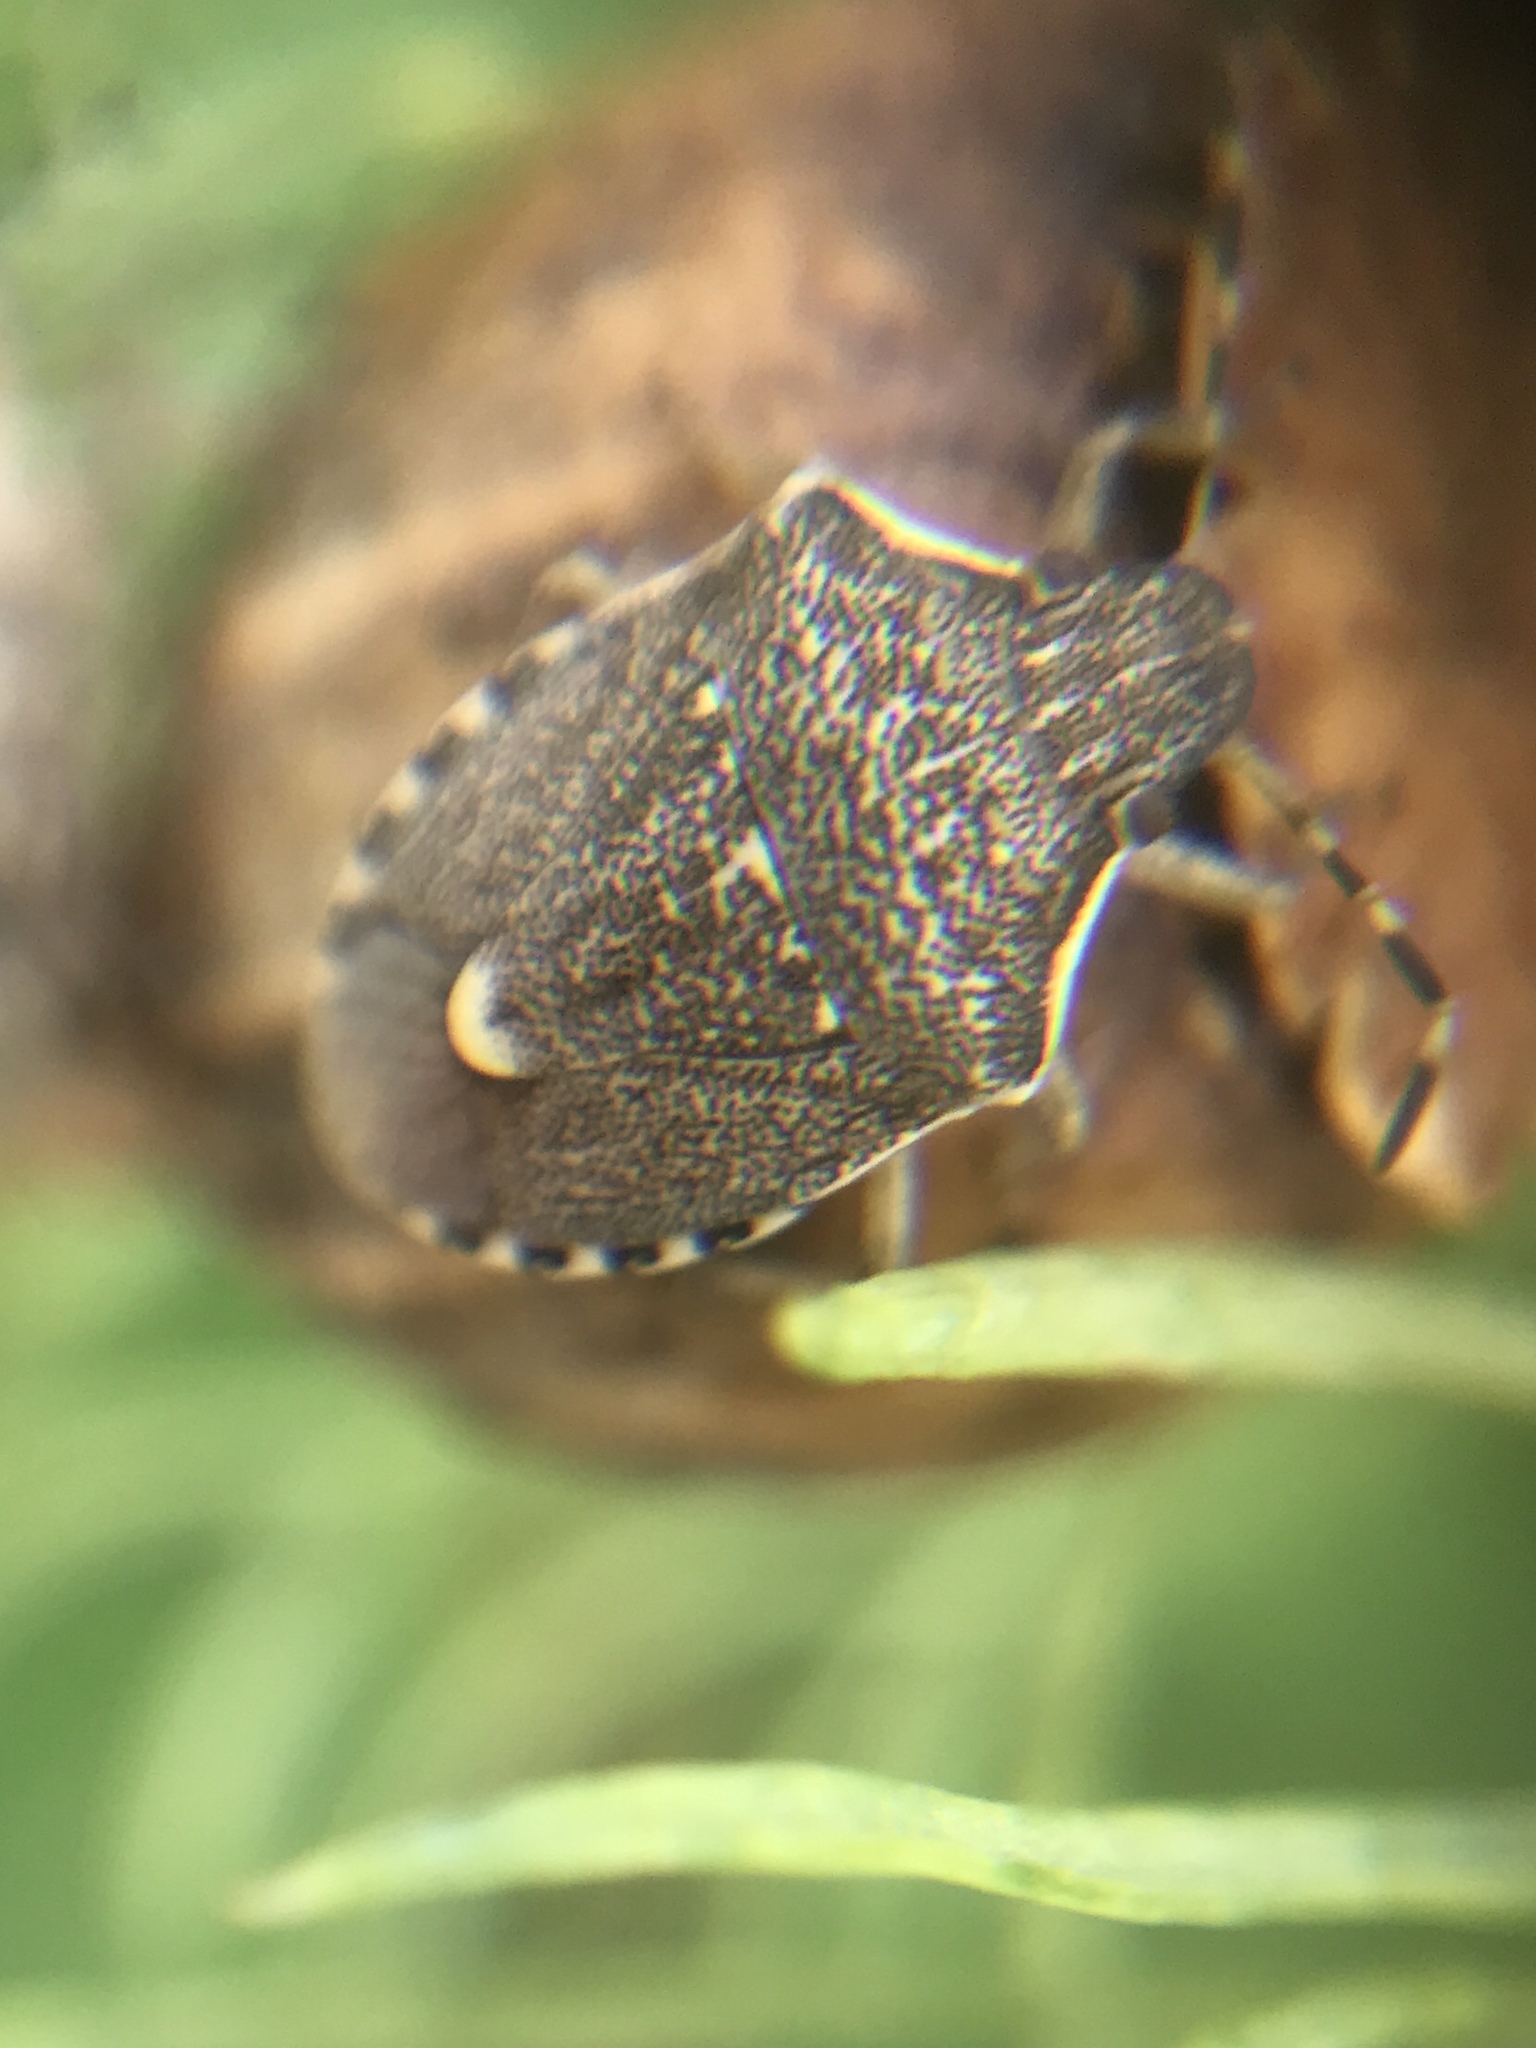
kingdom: Animalia
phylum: Arthropoda
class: Insecta
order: Hemiptera
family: Pentatomidae
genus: Holcostethus
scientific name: Holcostethus albipes
